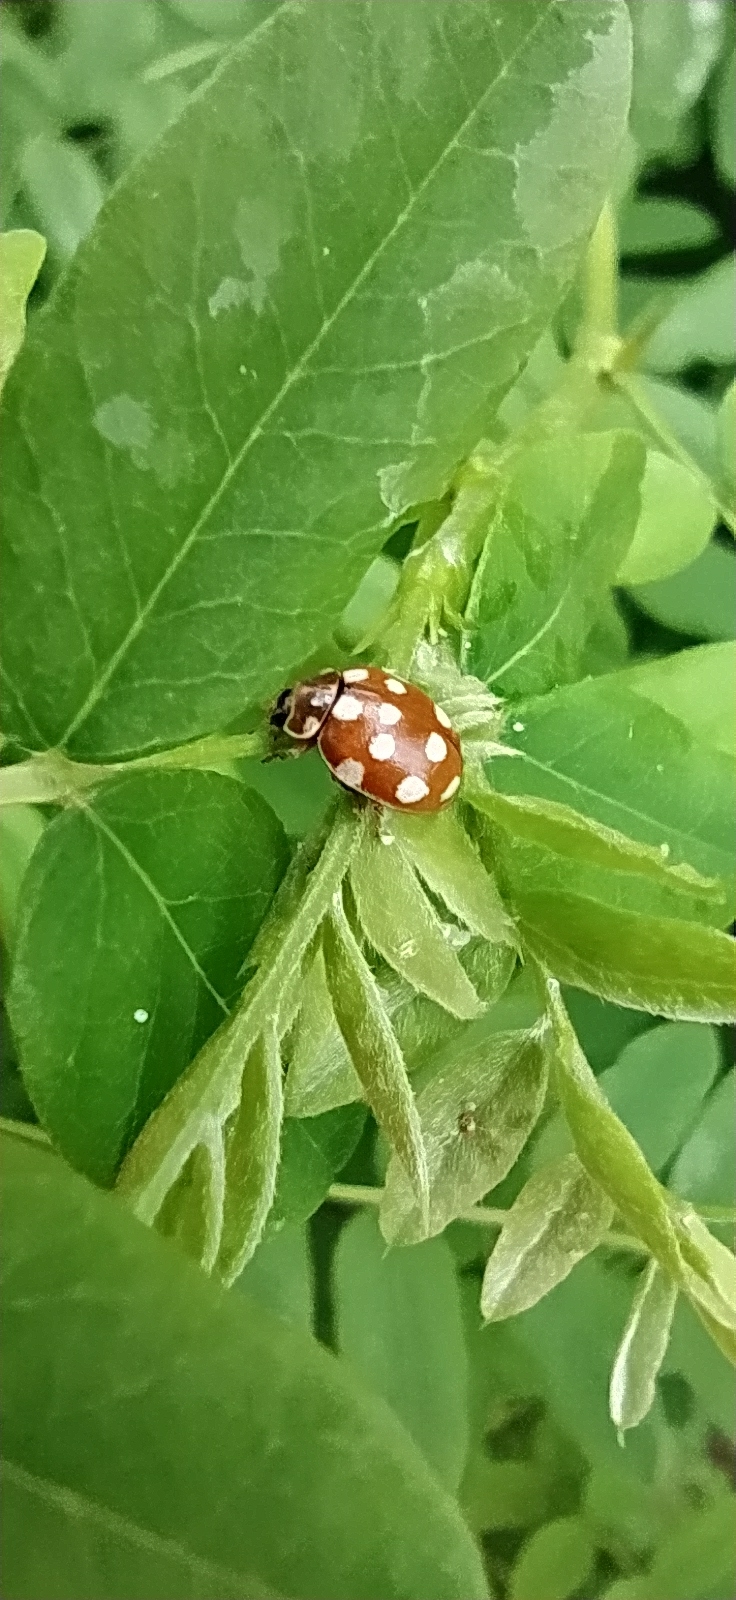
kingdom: Animalia
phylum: Arthropoda
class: Insecta
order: Coleoptera
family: Coccinellidae
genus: Calvia
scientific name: Calvia quatuordecimguttata
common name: Cream-spot ladybird
